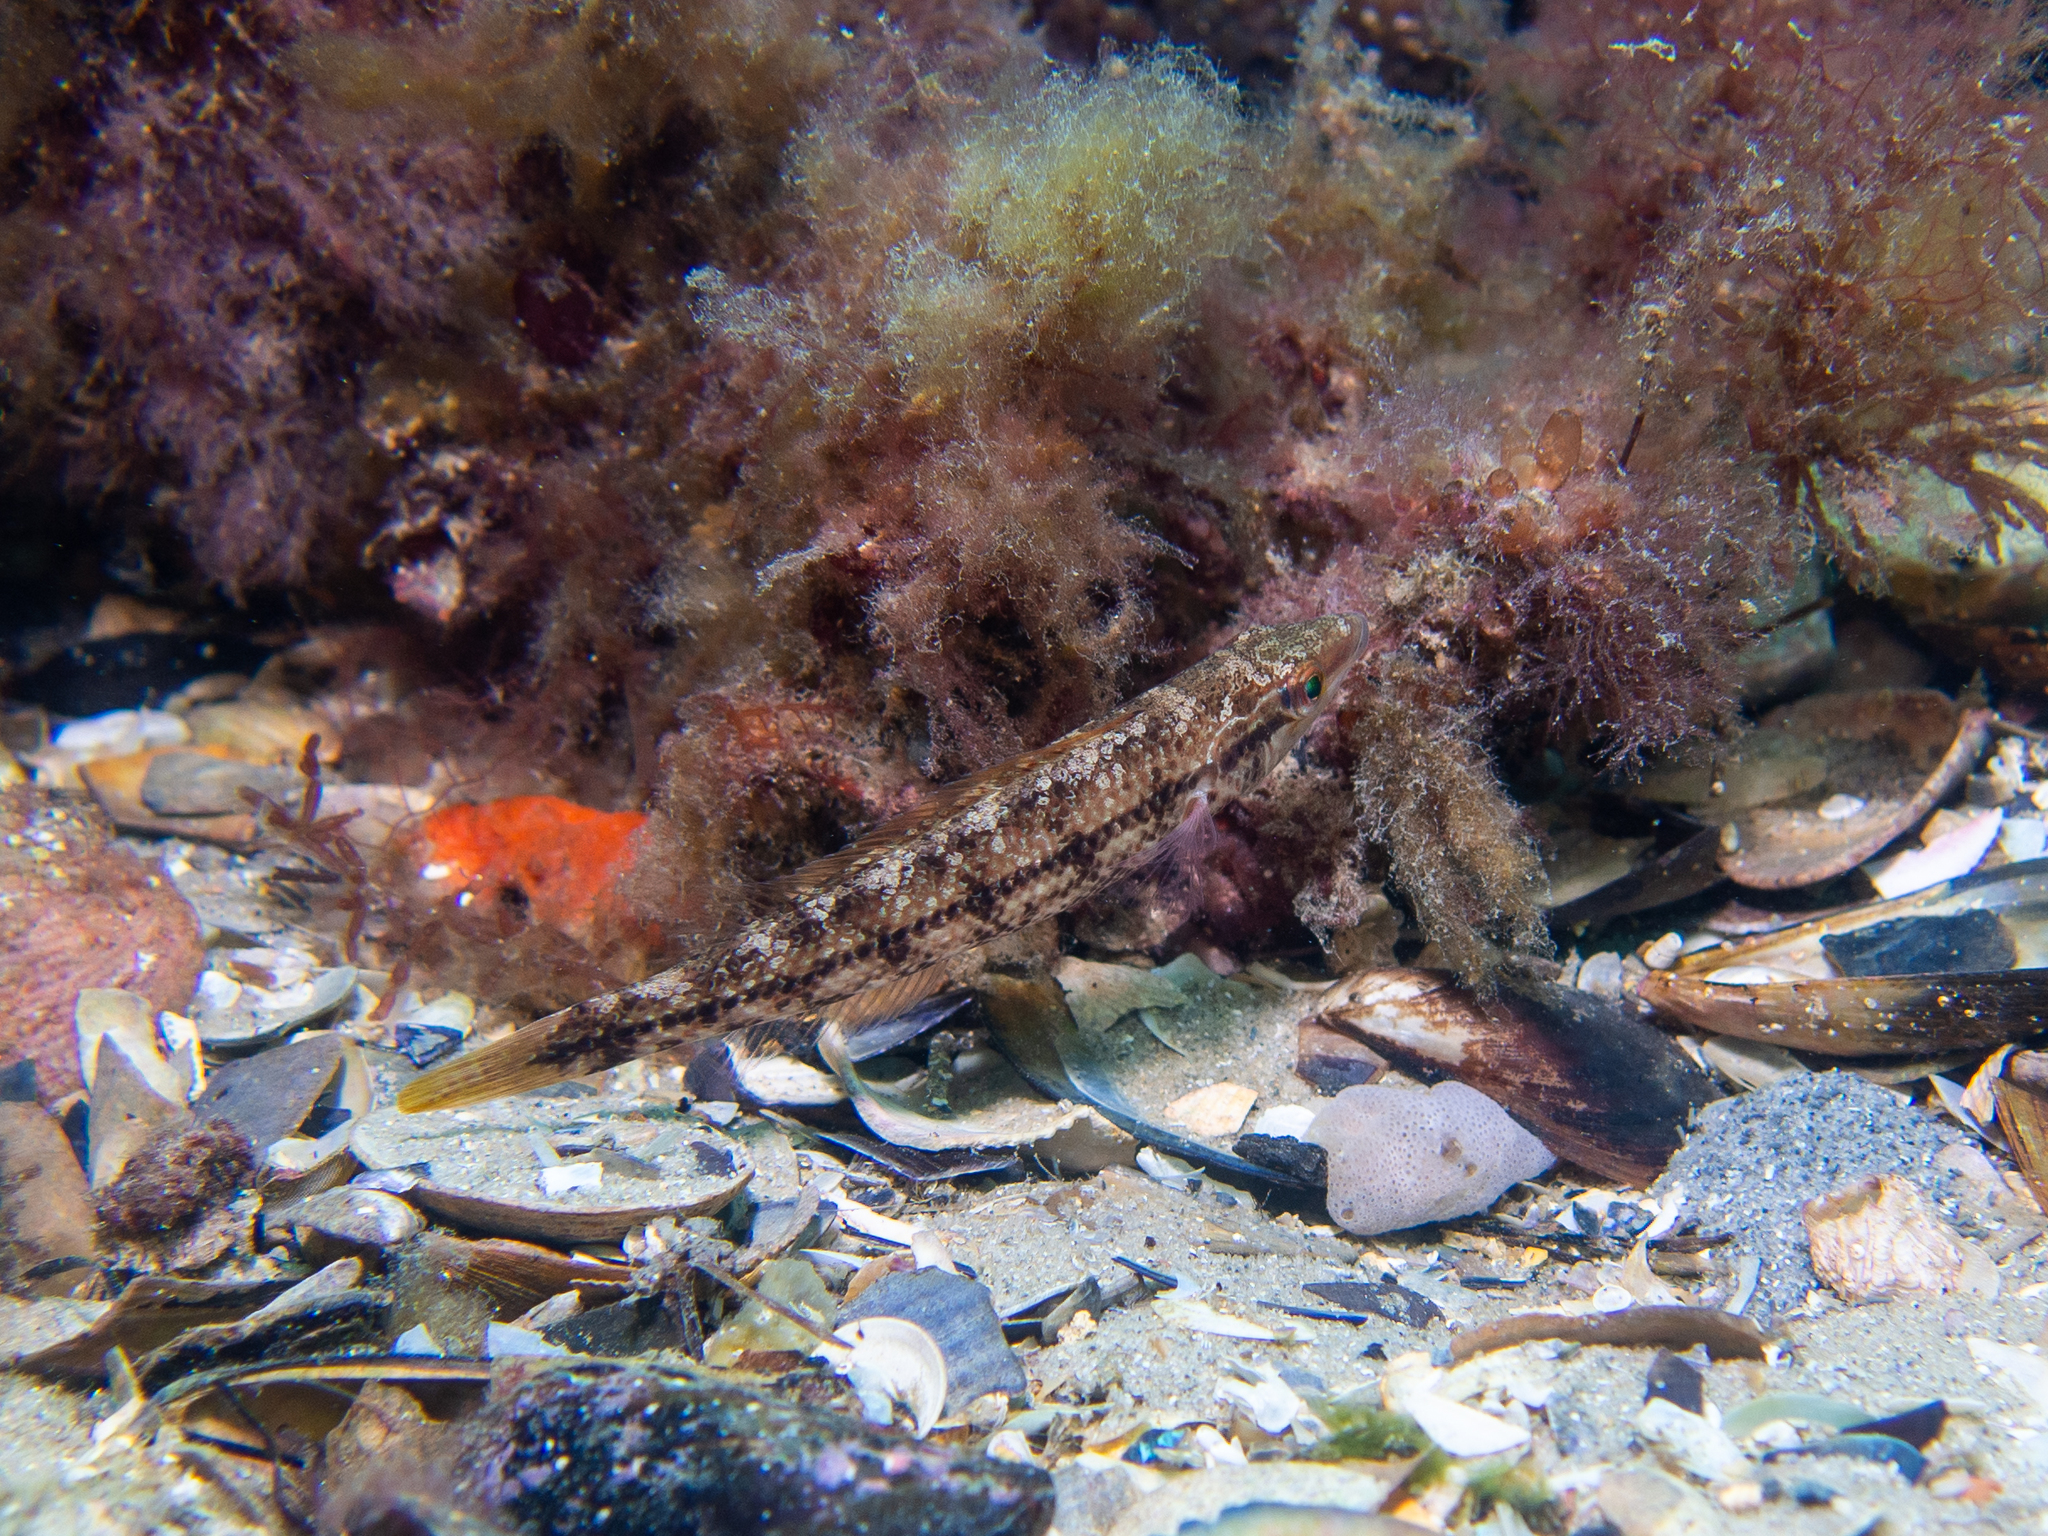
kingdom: Animalia
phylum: Chordata
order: Perciformes
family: Odacidae
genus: Neoodax
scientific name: Neoodax balteatus
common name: Ground mullet
